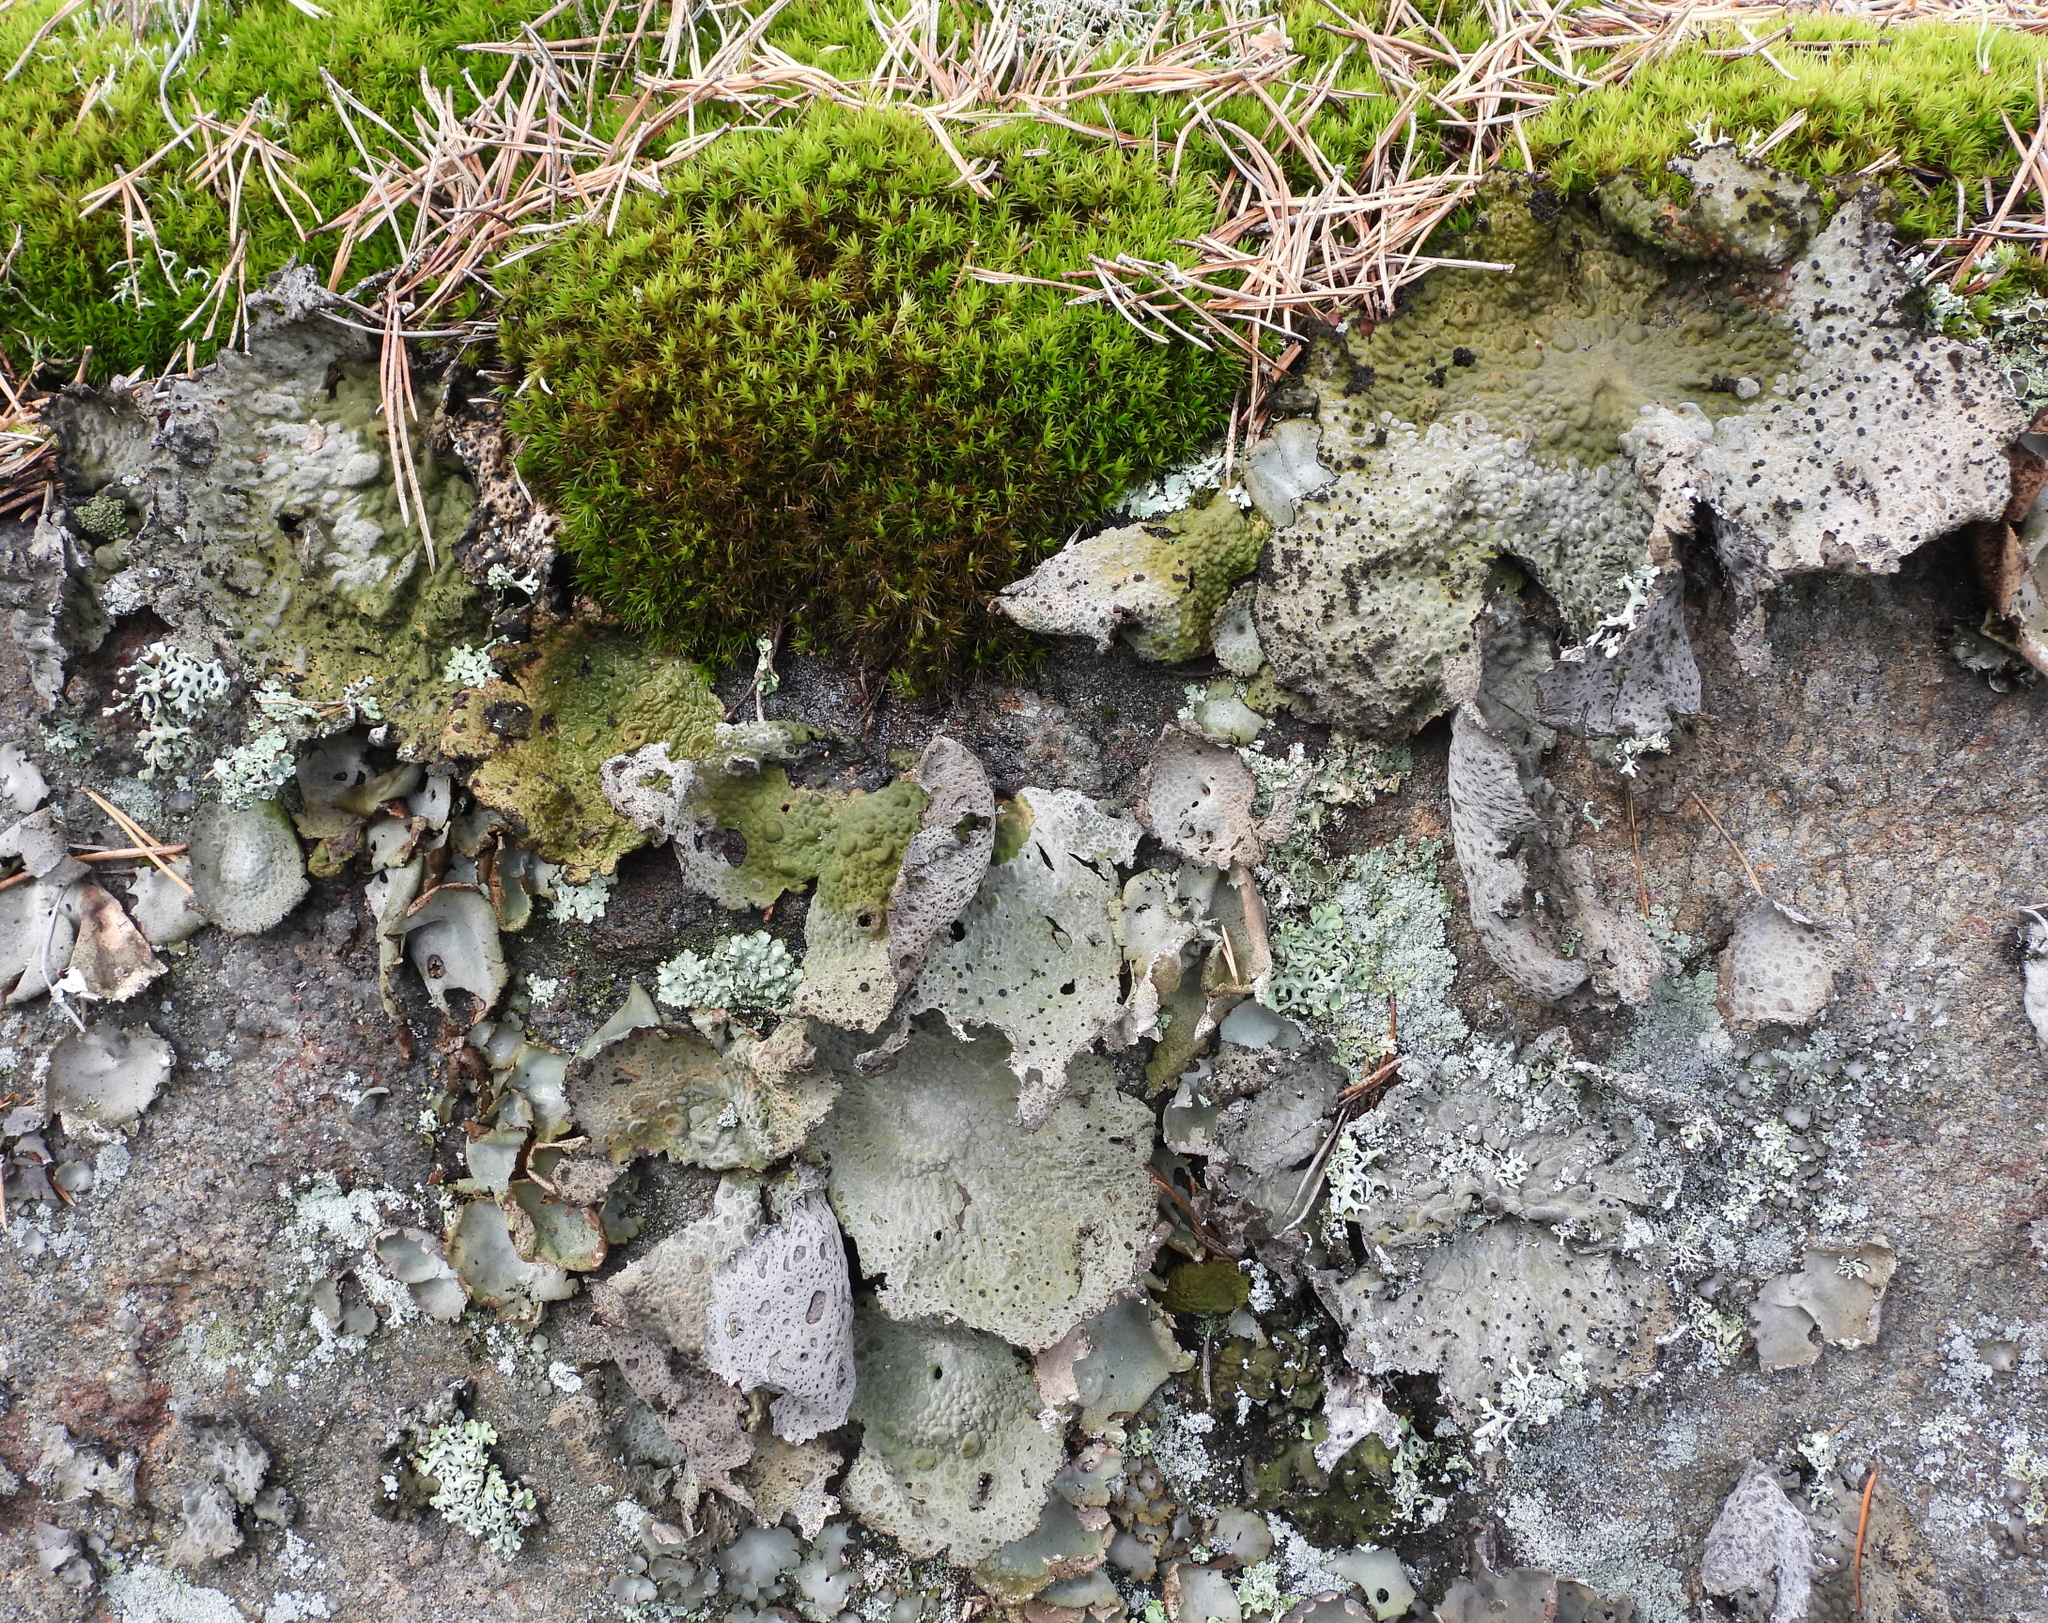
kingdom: Fungi
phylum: Ascomycota
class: Lecanoromycetes
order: Umbilicariales
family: Umbilicariaceae
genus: Lasallia
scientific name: Lasallia pustulata
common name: Blistered toadskin lichen
